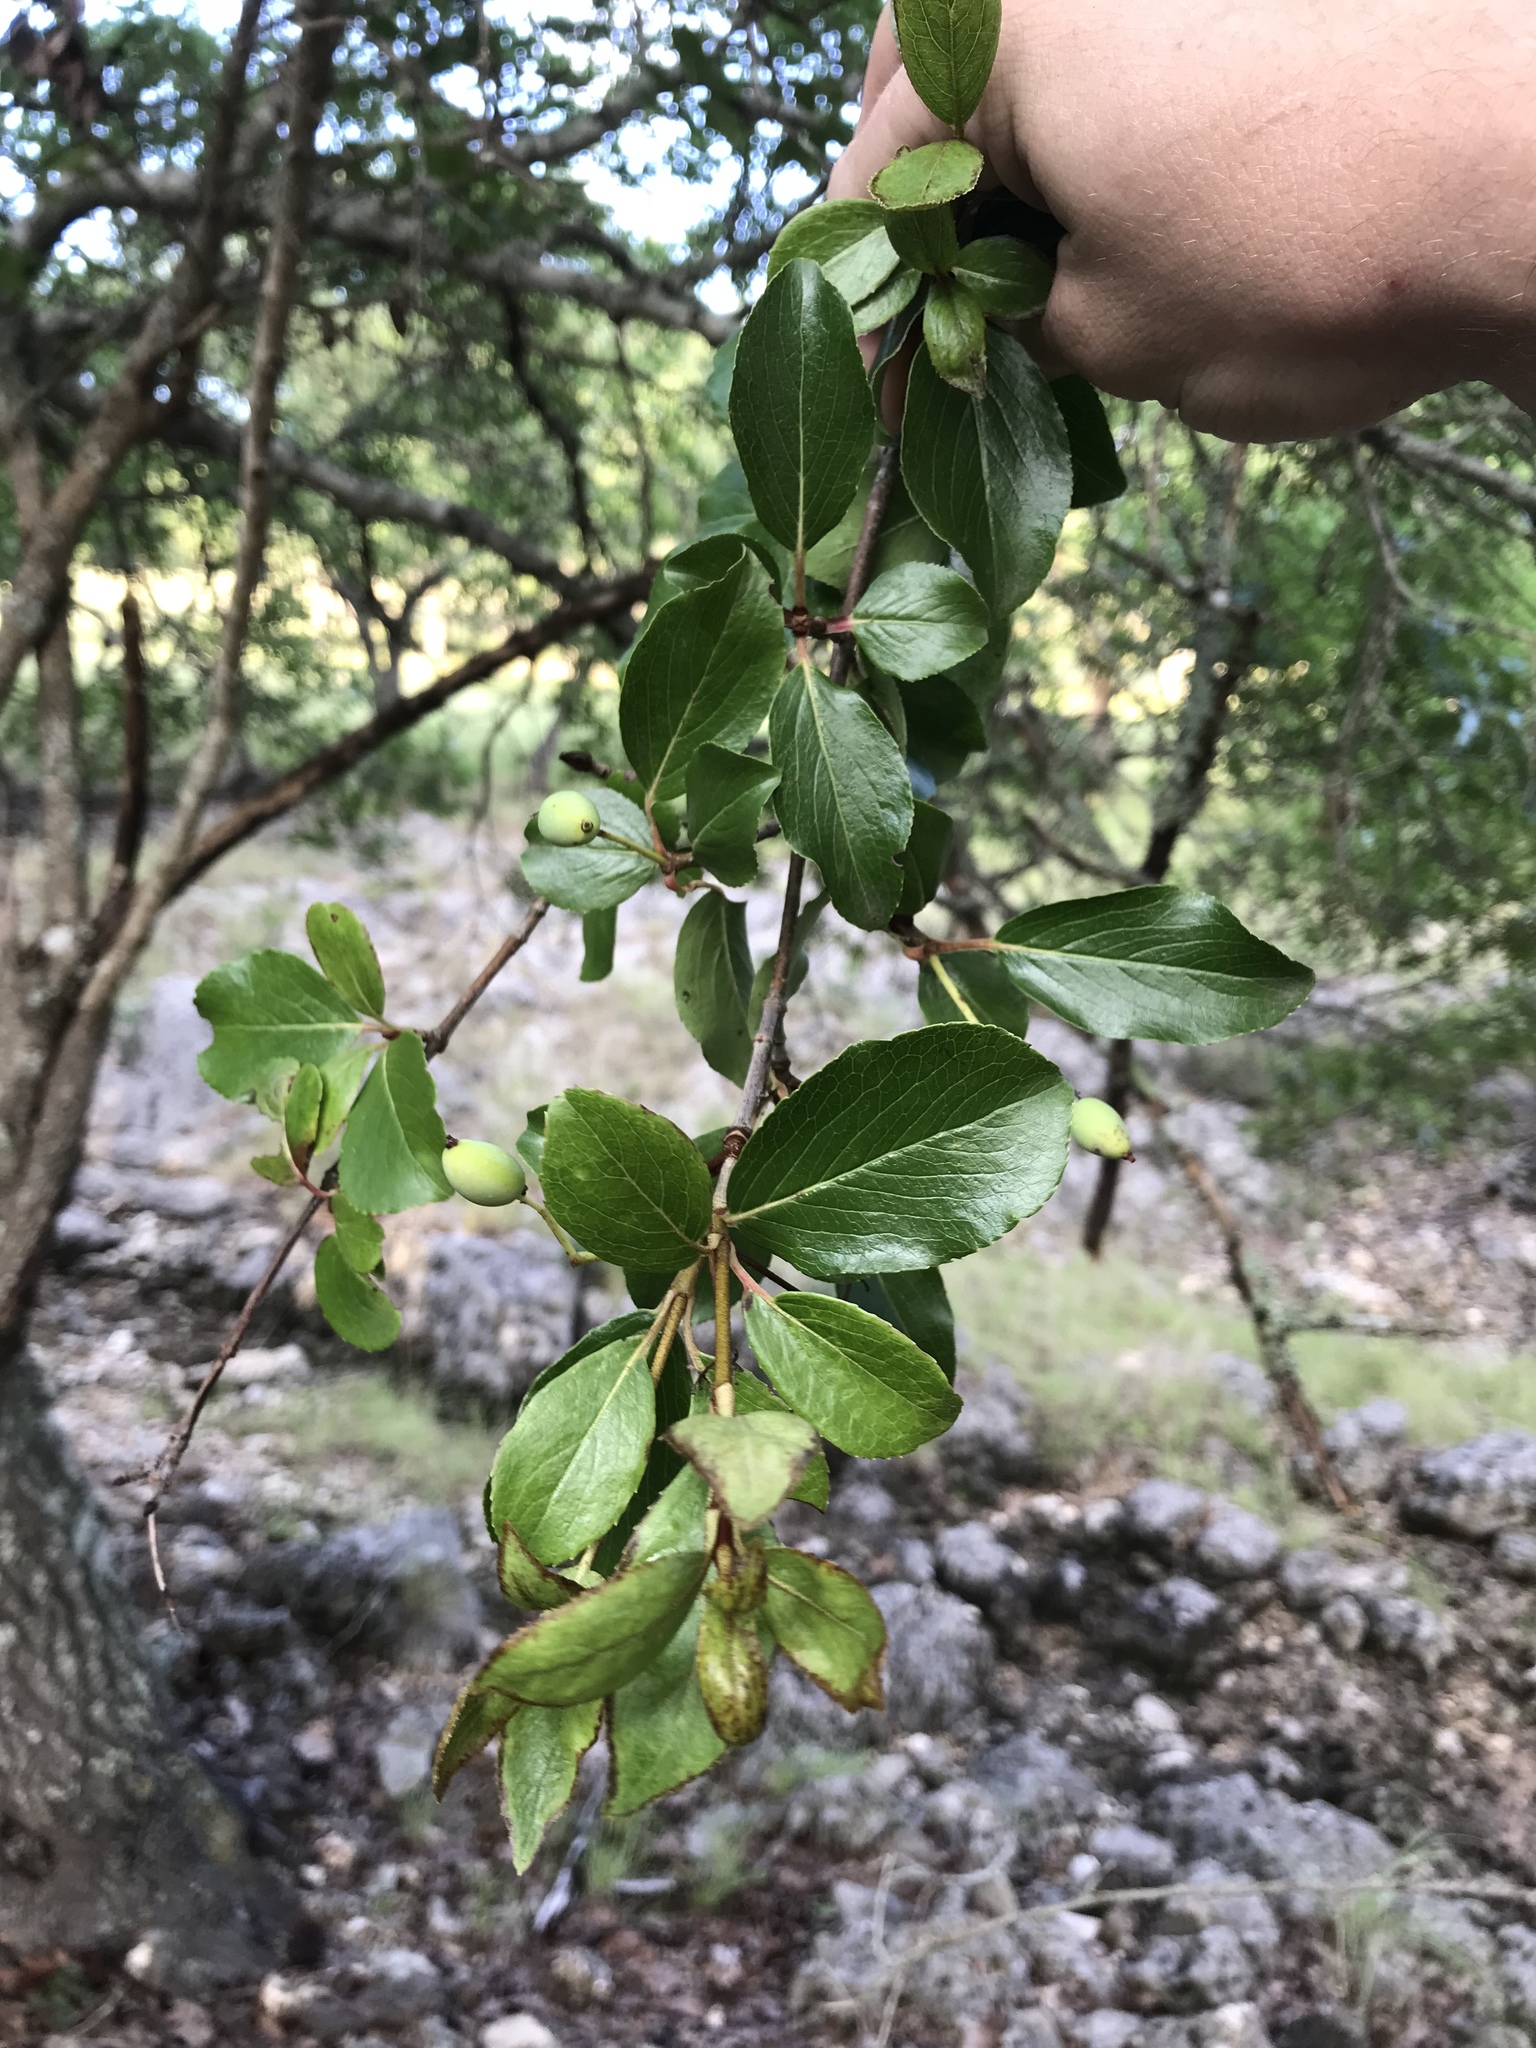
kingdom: Plantae
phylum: Tracheophyta
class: Magnoliopsida
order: Dipsacales
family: Viburnaceae
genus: Viburnum
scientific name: Viburnum rufidulum
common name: Blue haw
